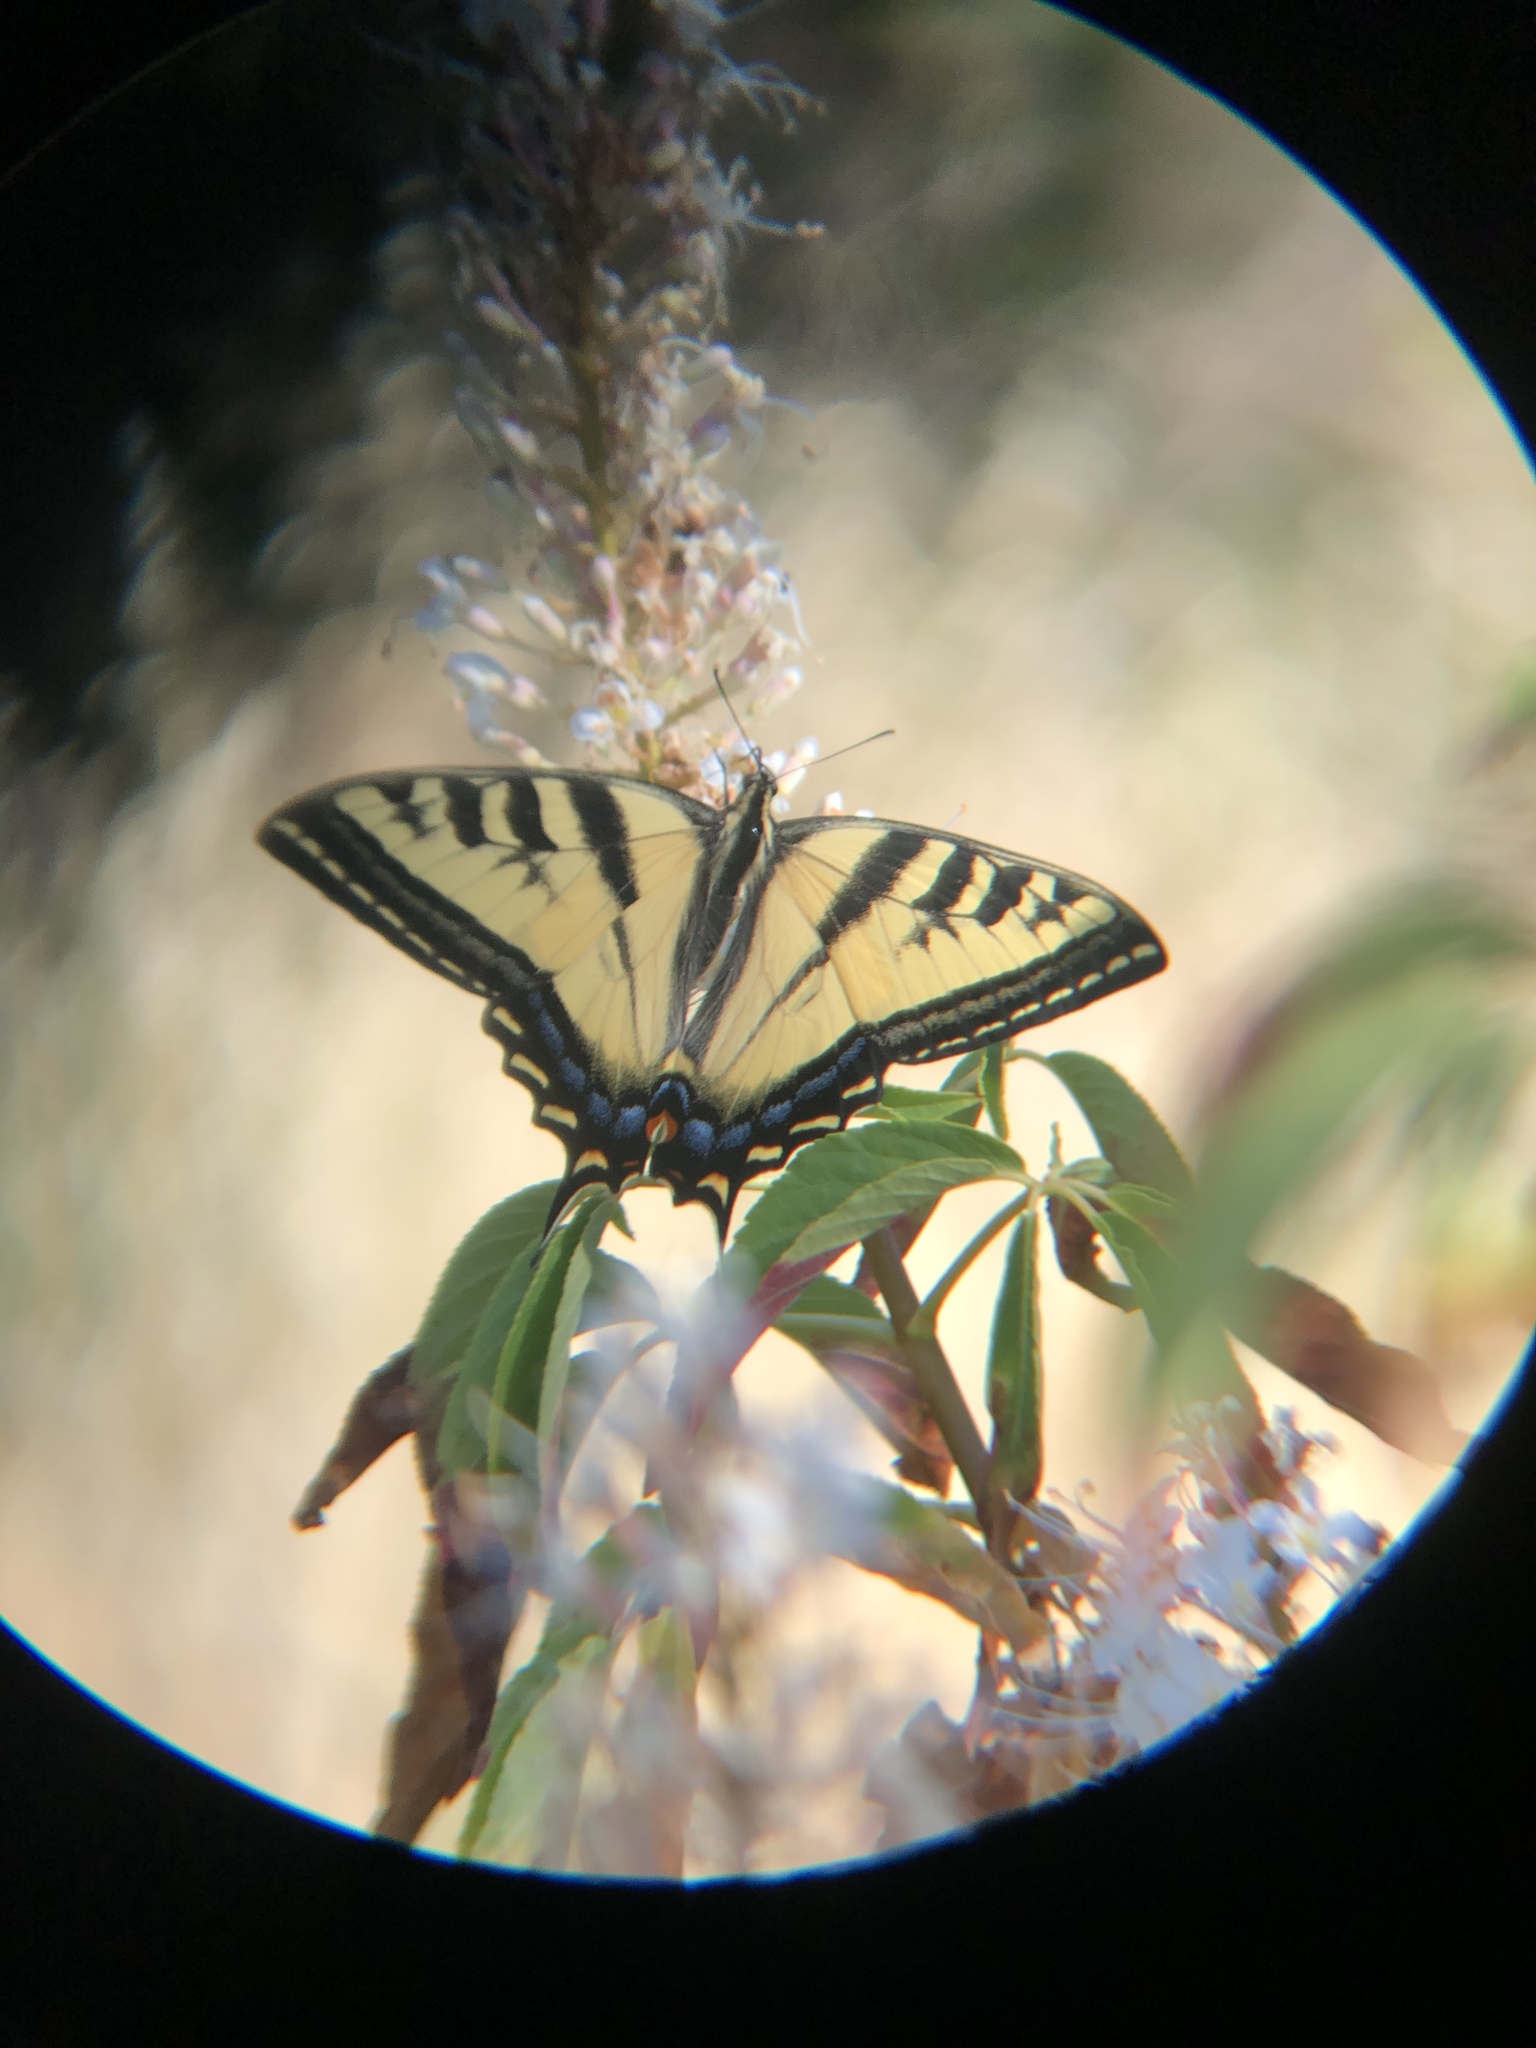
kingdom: Animalia
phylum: Arthropoda
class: Insecta
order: Lepidoptera
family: Papilionidae
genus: Papilio
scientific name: Papilio rutulus
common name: Western tiger swallowtail
